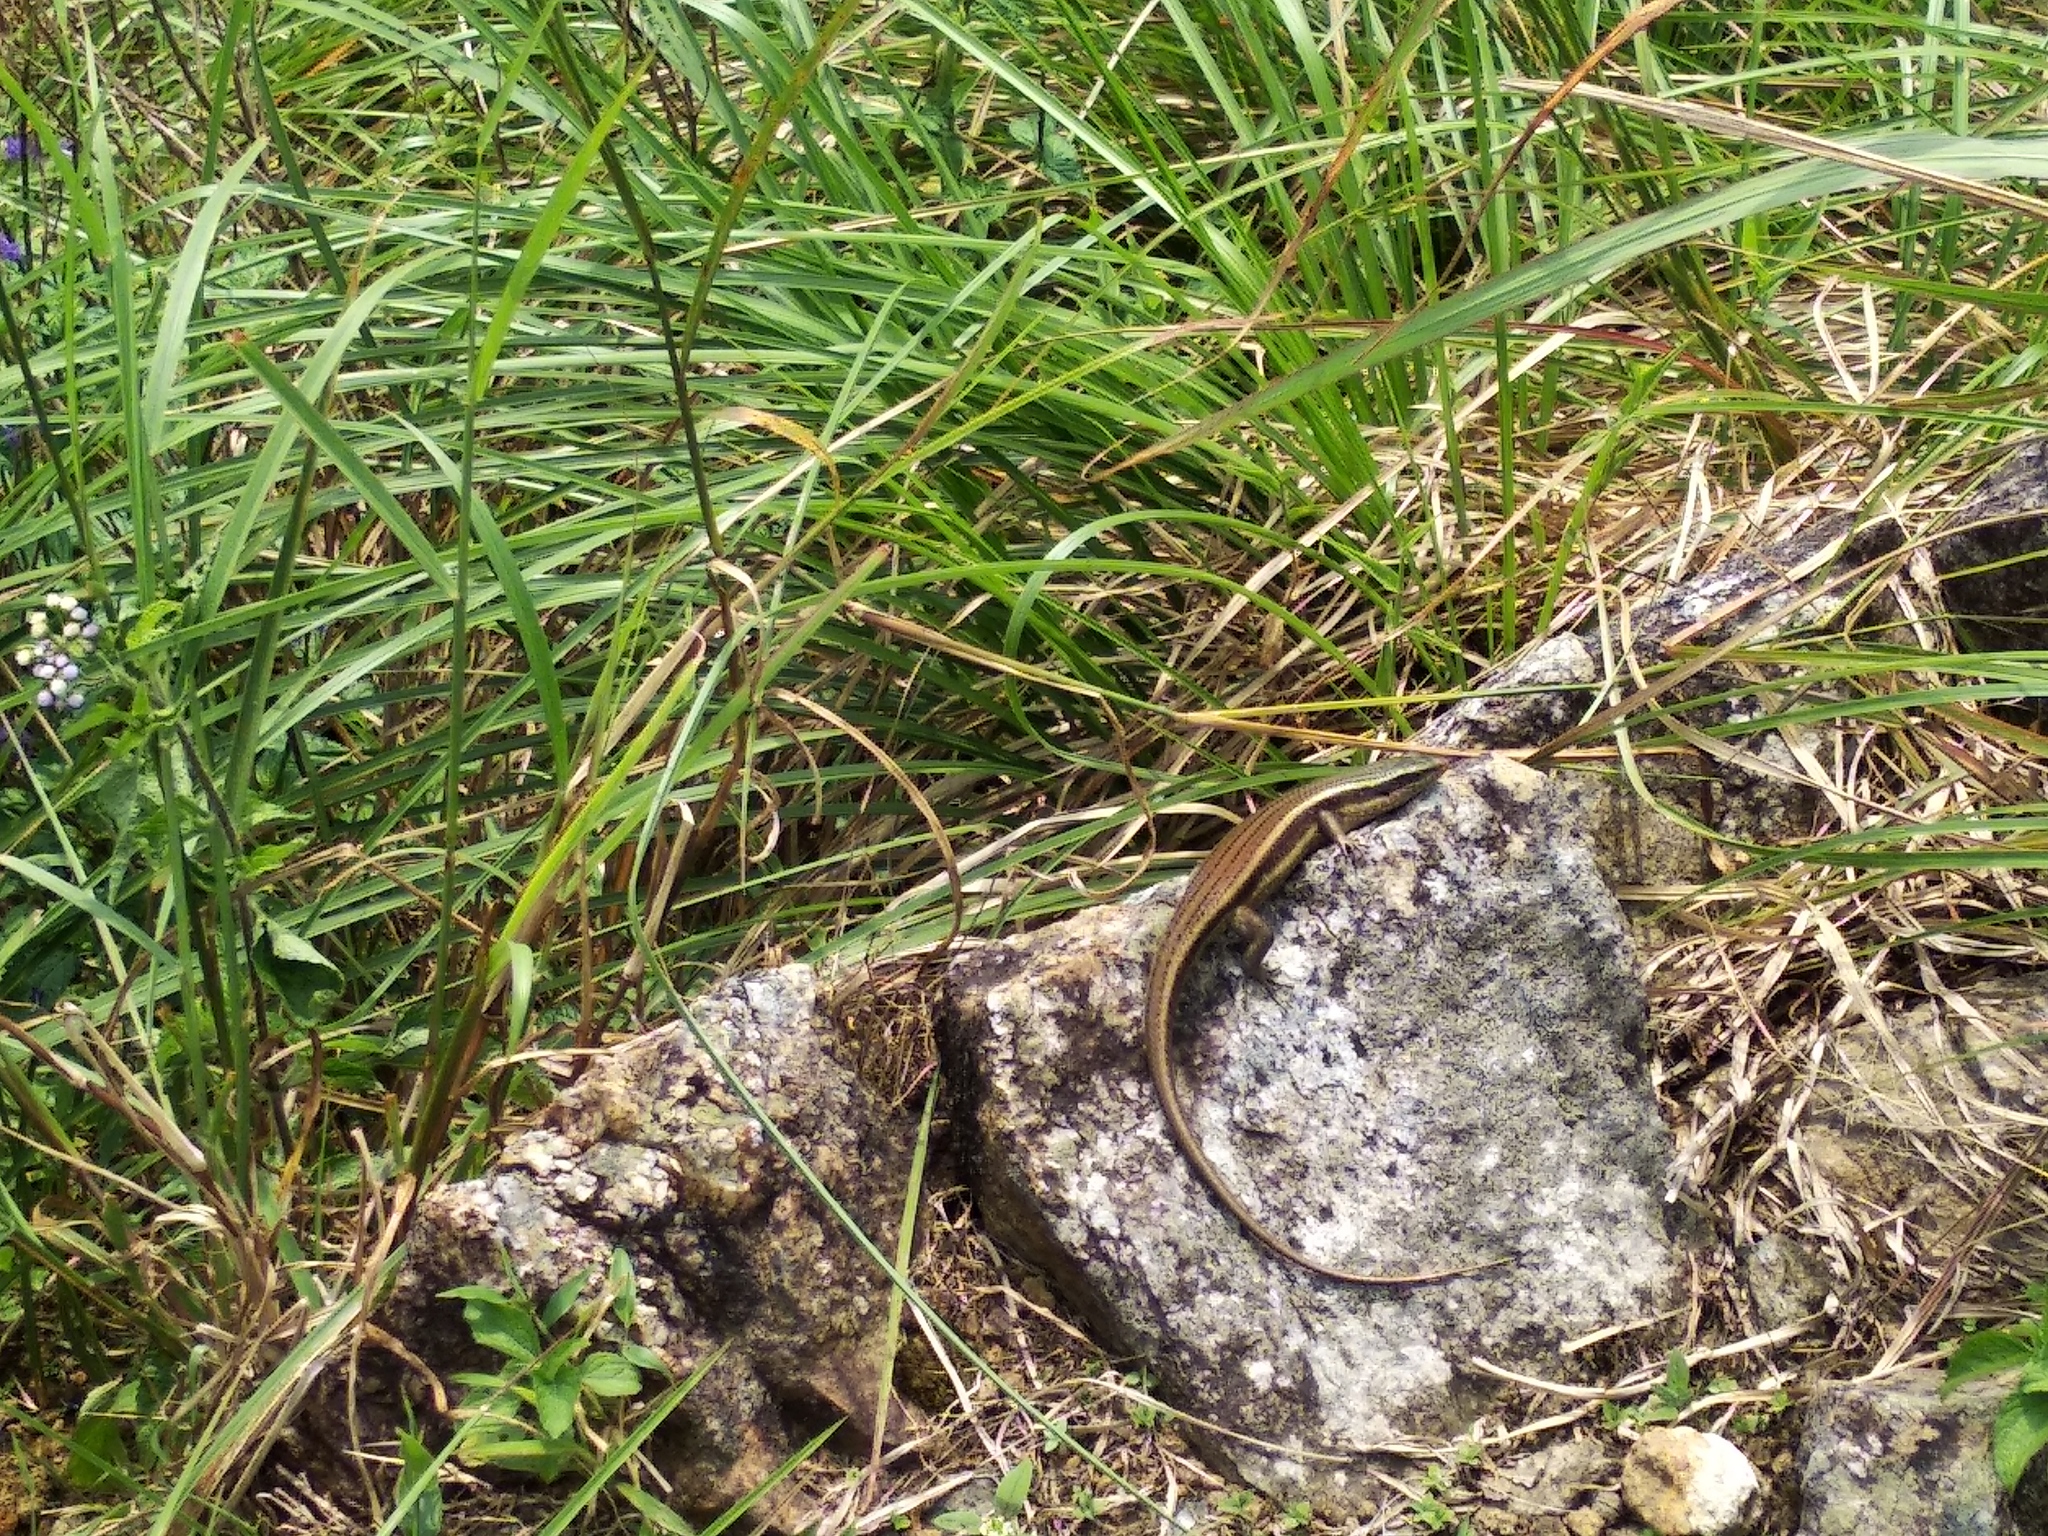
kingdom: Animalia
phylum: Chordata
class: Squamata
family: Scincidae
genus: Eutropis
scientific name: Eutropis macularia
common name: Bronze mabuya
